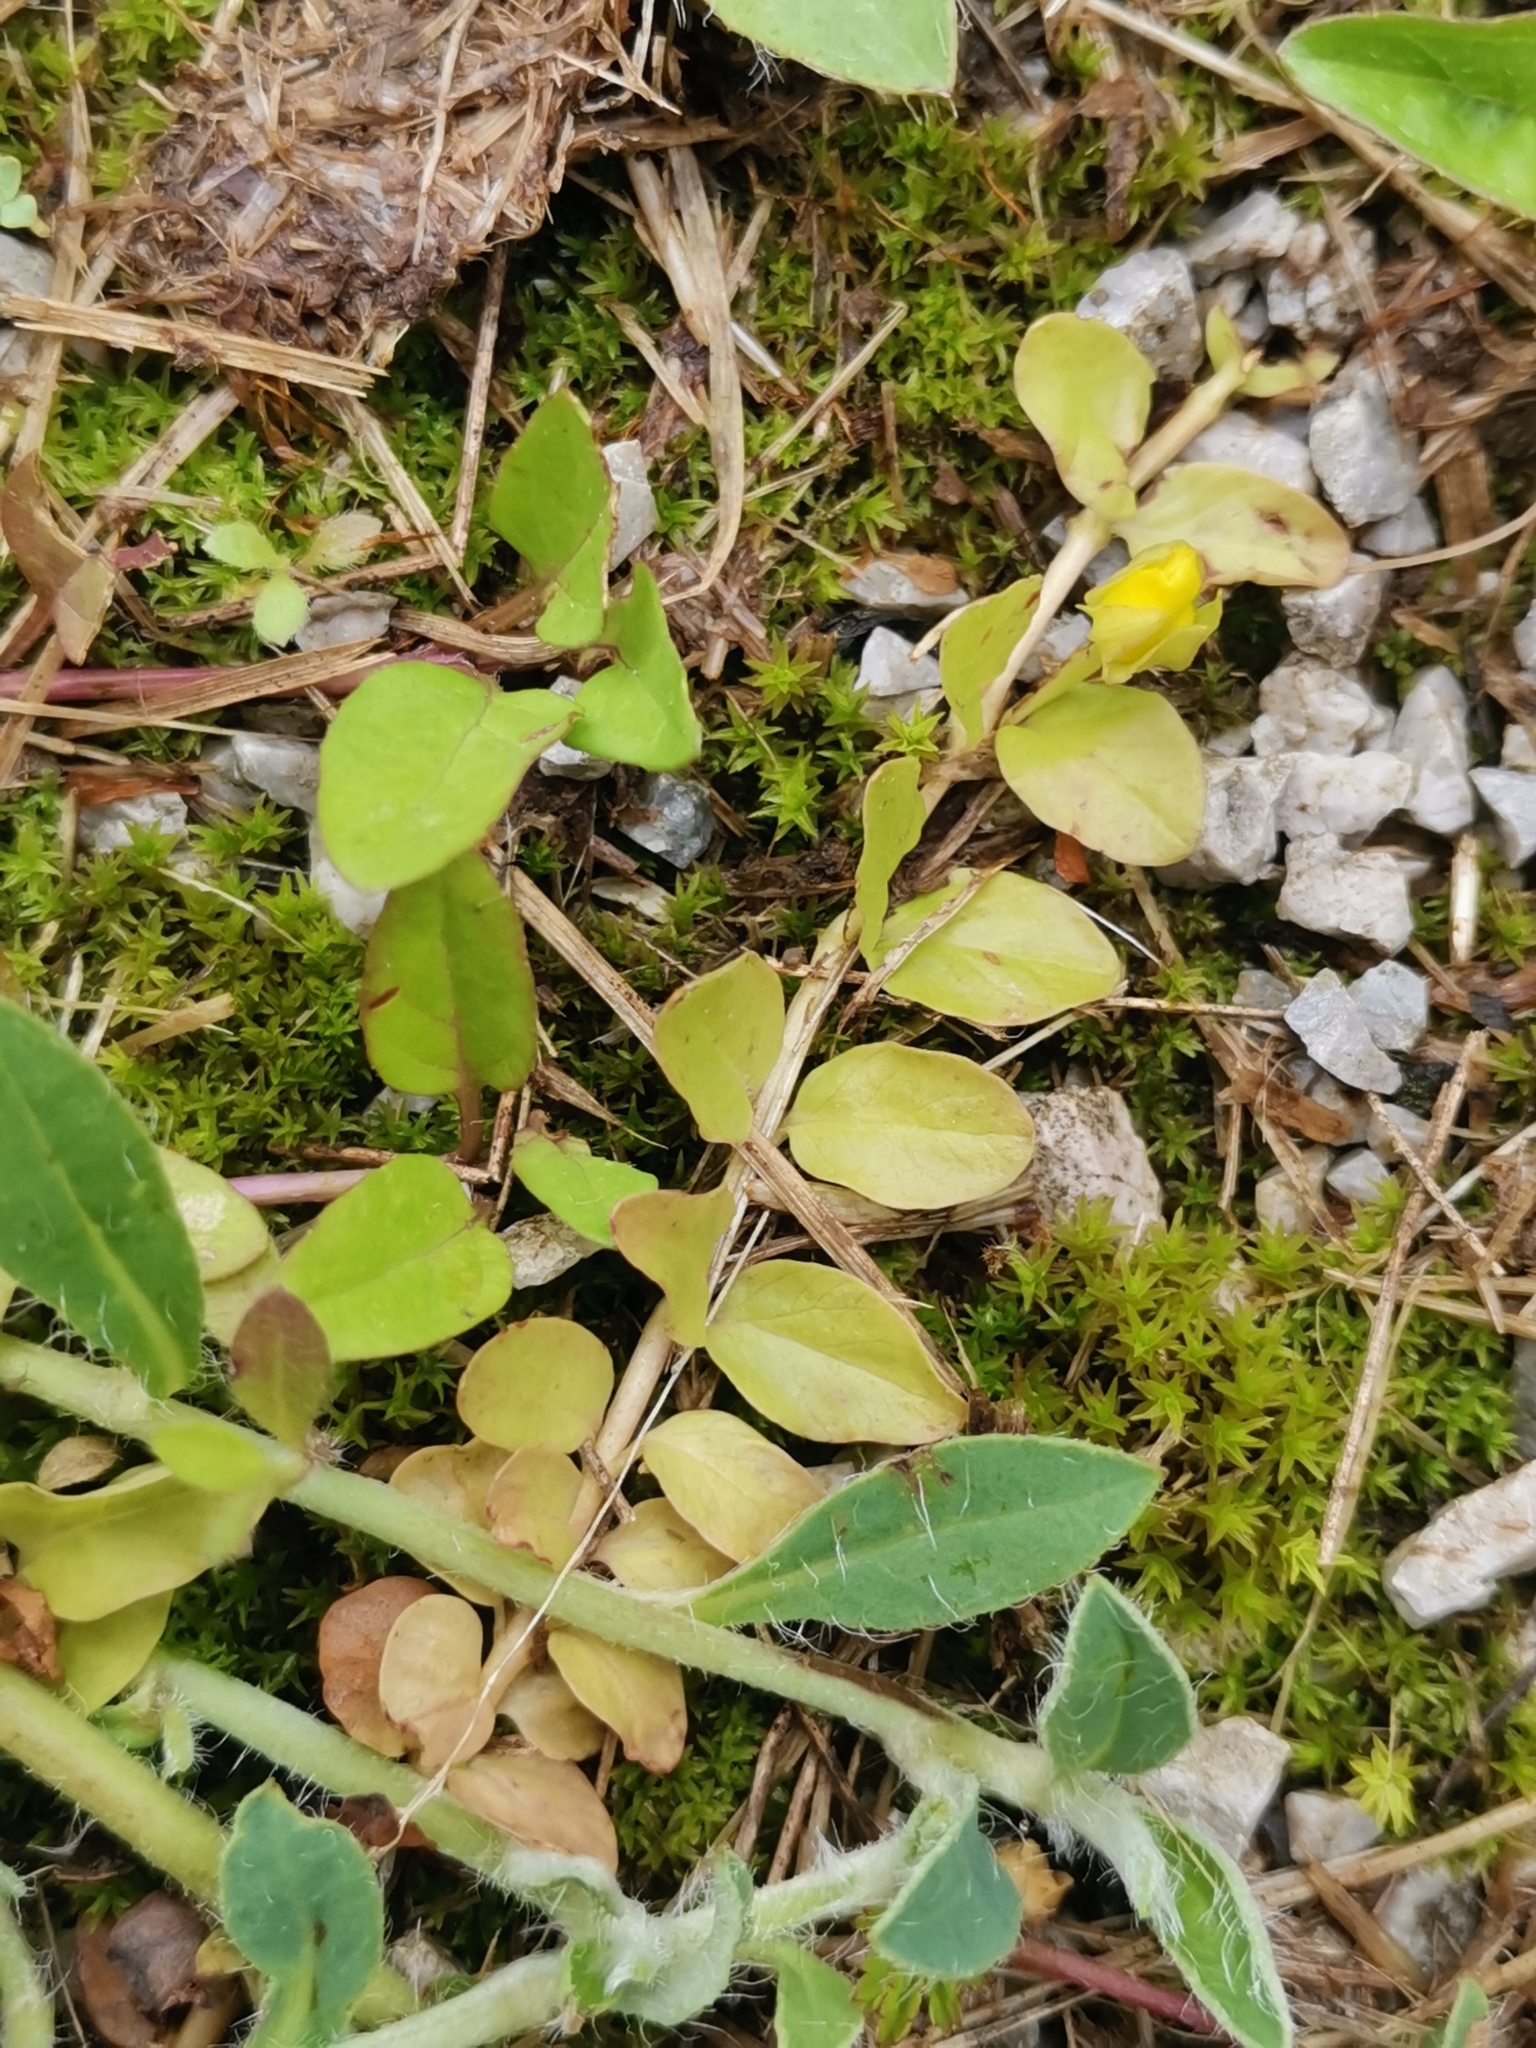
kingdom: Plantae
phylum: Tracheophyta
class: Magnoliopsida
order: Ericales
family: Primulaceae
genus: Lysimachia
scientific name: Lysimachia nummularia
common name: Moneywort
